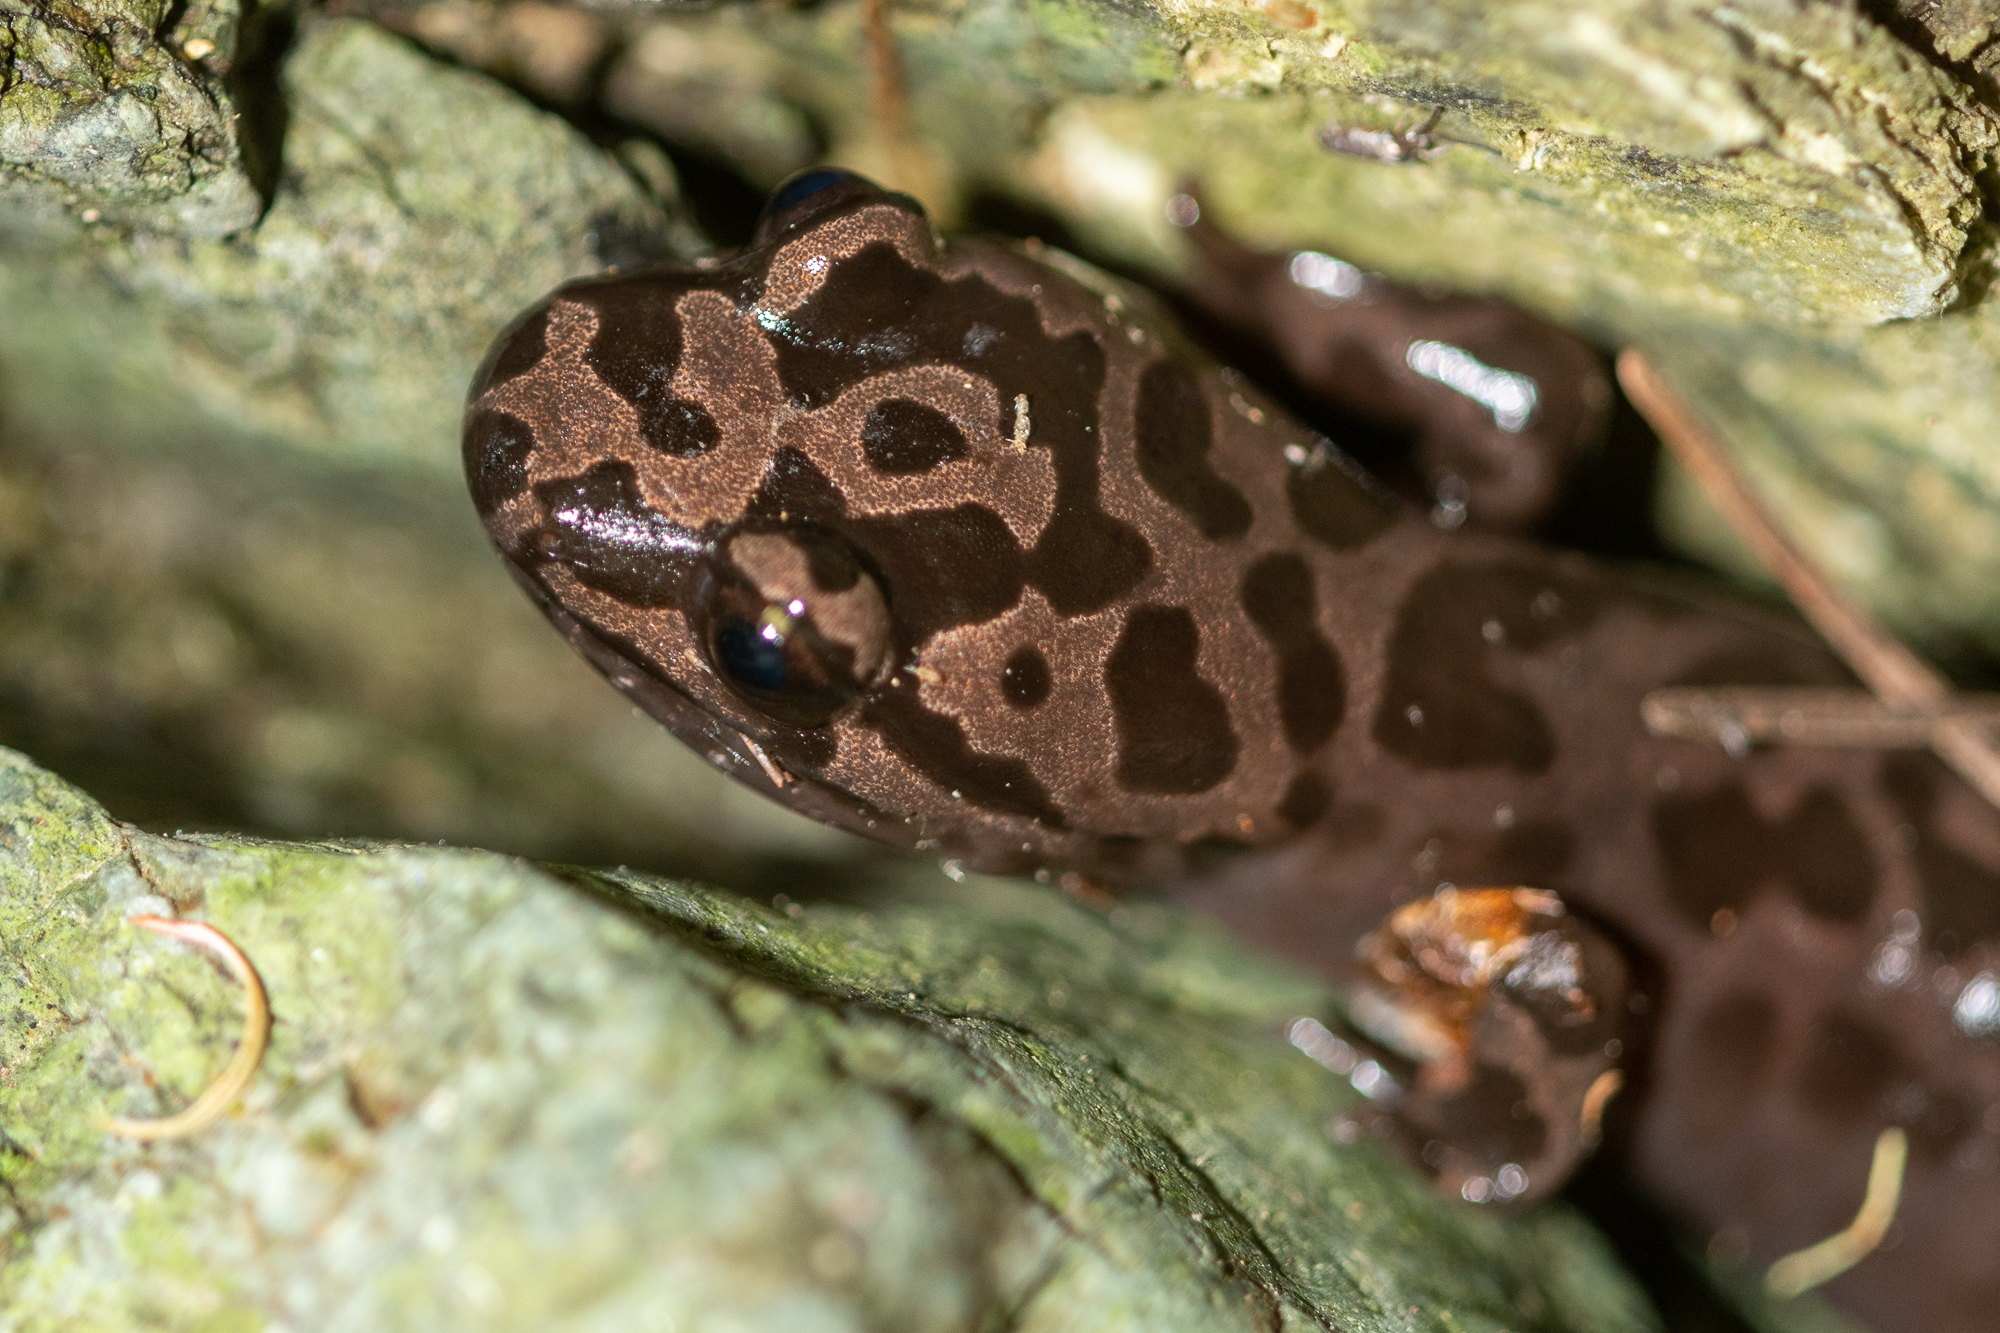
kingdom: Animalia
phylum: Chordata
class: Amphibia
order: Caudata
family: Ambystomatidae
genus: Dicamptodon
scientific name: Dicamptodon ensatus
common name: California giant salamander
